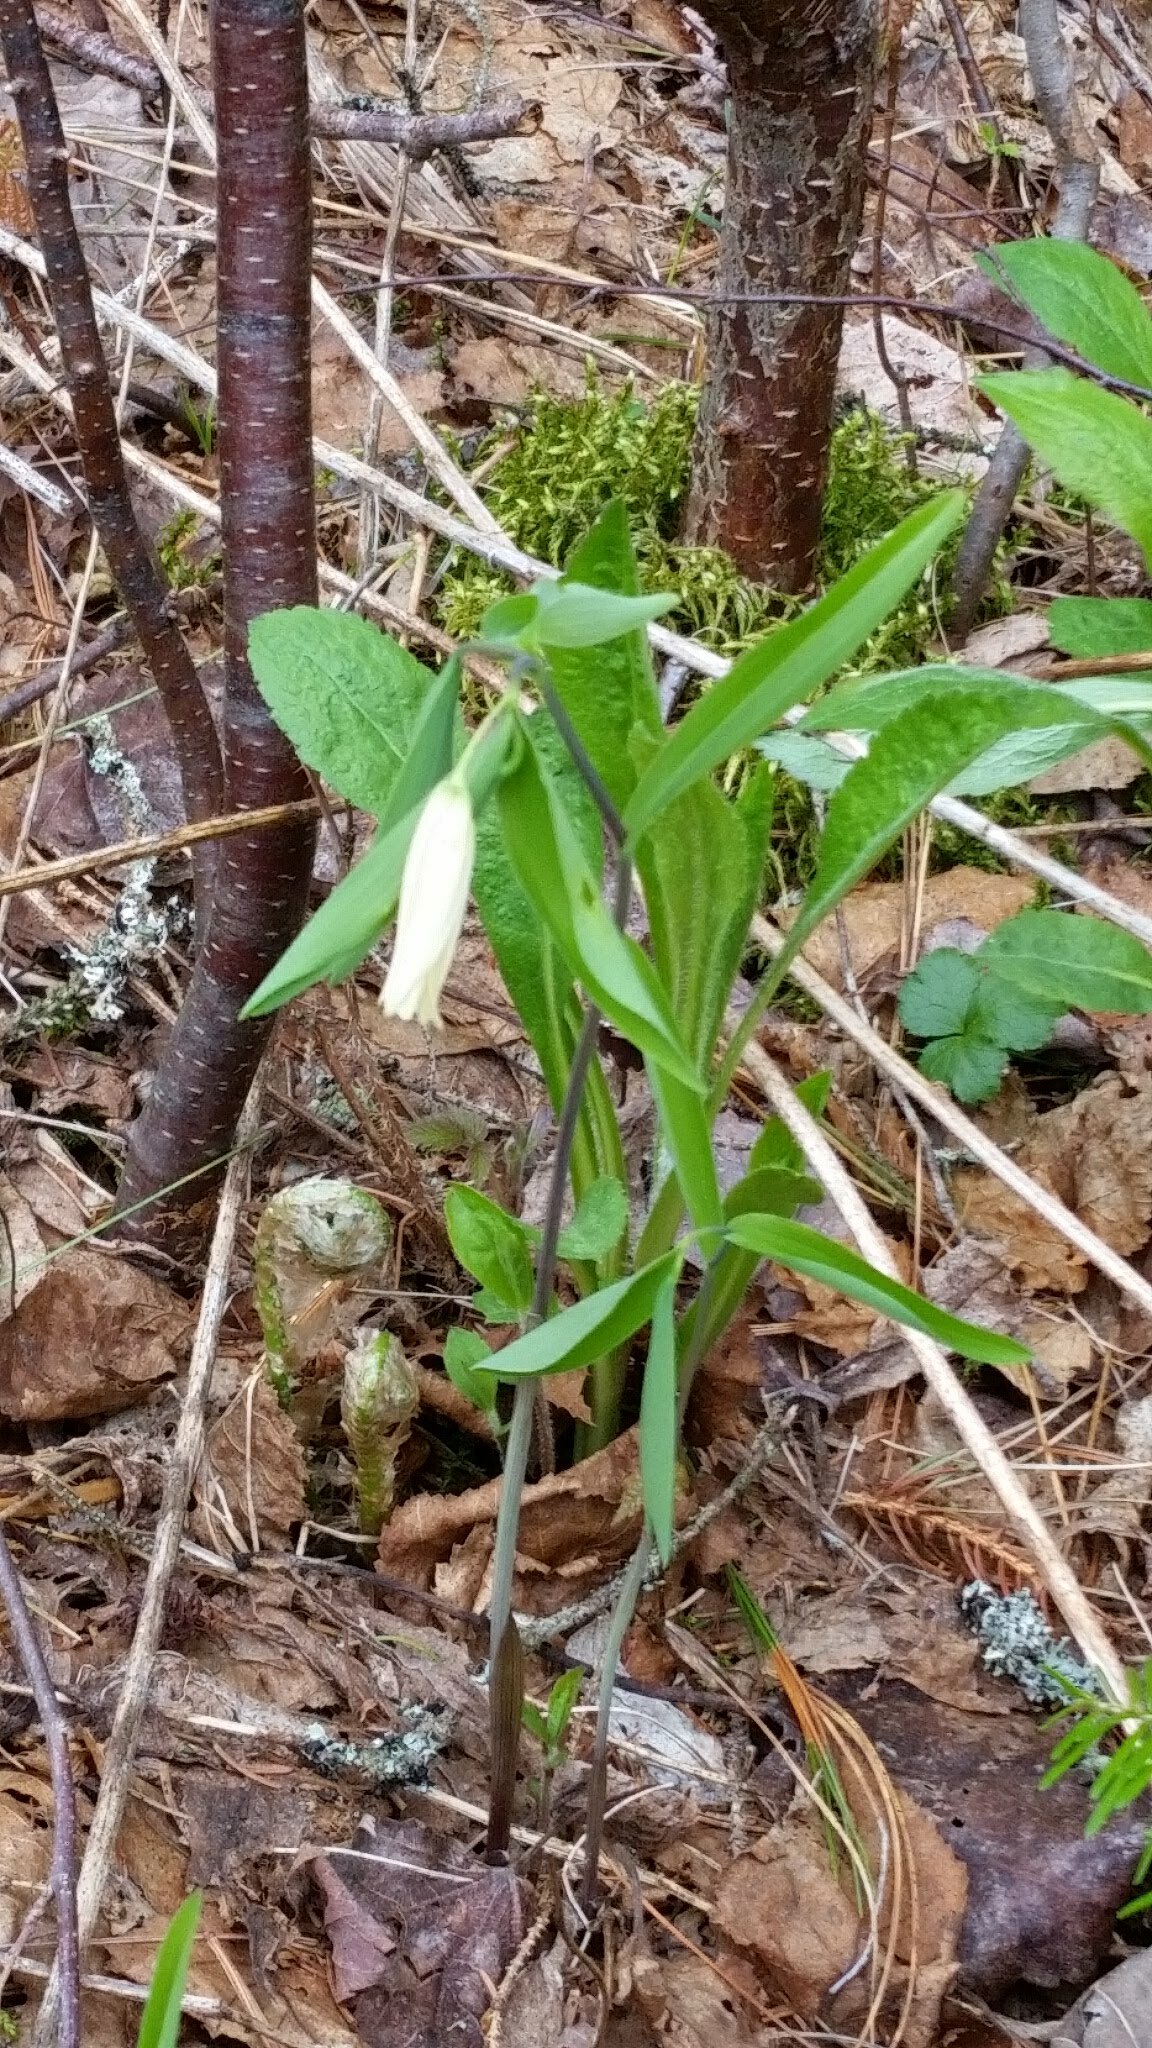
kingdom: Plantae
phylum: Tracheophyta
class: Liliopsida
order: Liliales
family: Colchicaceae
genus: Uvularia
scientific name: Uvularia sessilifolia
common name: Straw-lily
